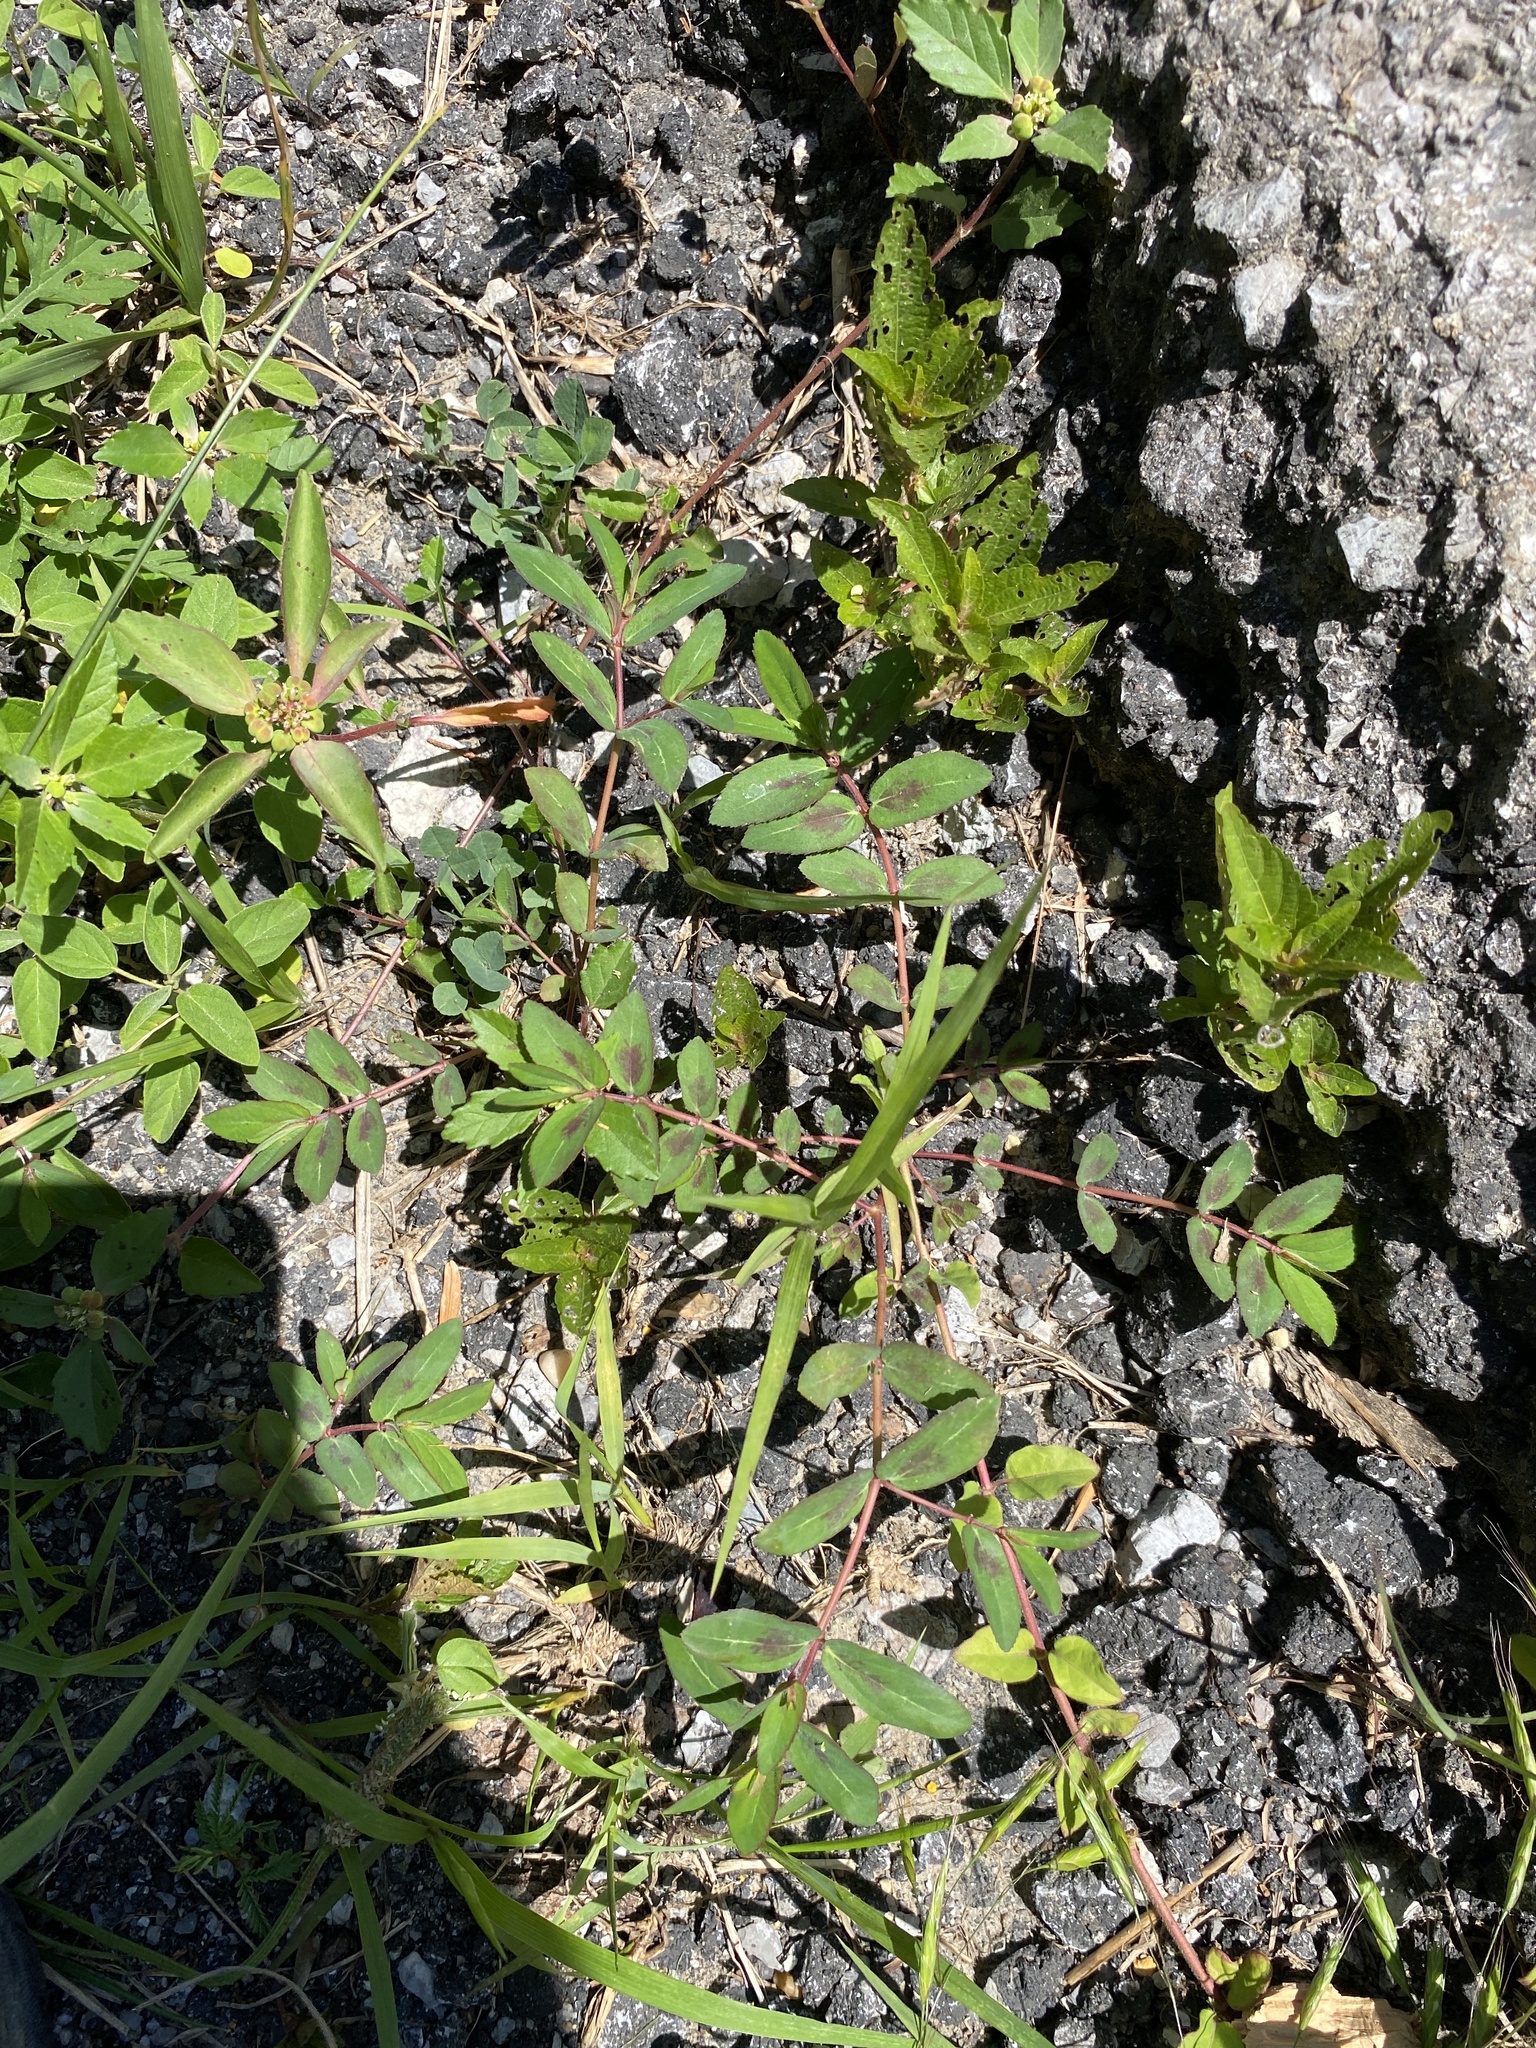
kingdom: Plantae
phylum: Tracheophyta
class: Magnoliopsida
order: Malpighiales
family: Euphorbiaceae
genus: Euphorbia
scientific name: Euphorbia nutans
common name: Eyebane
